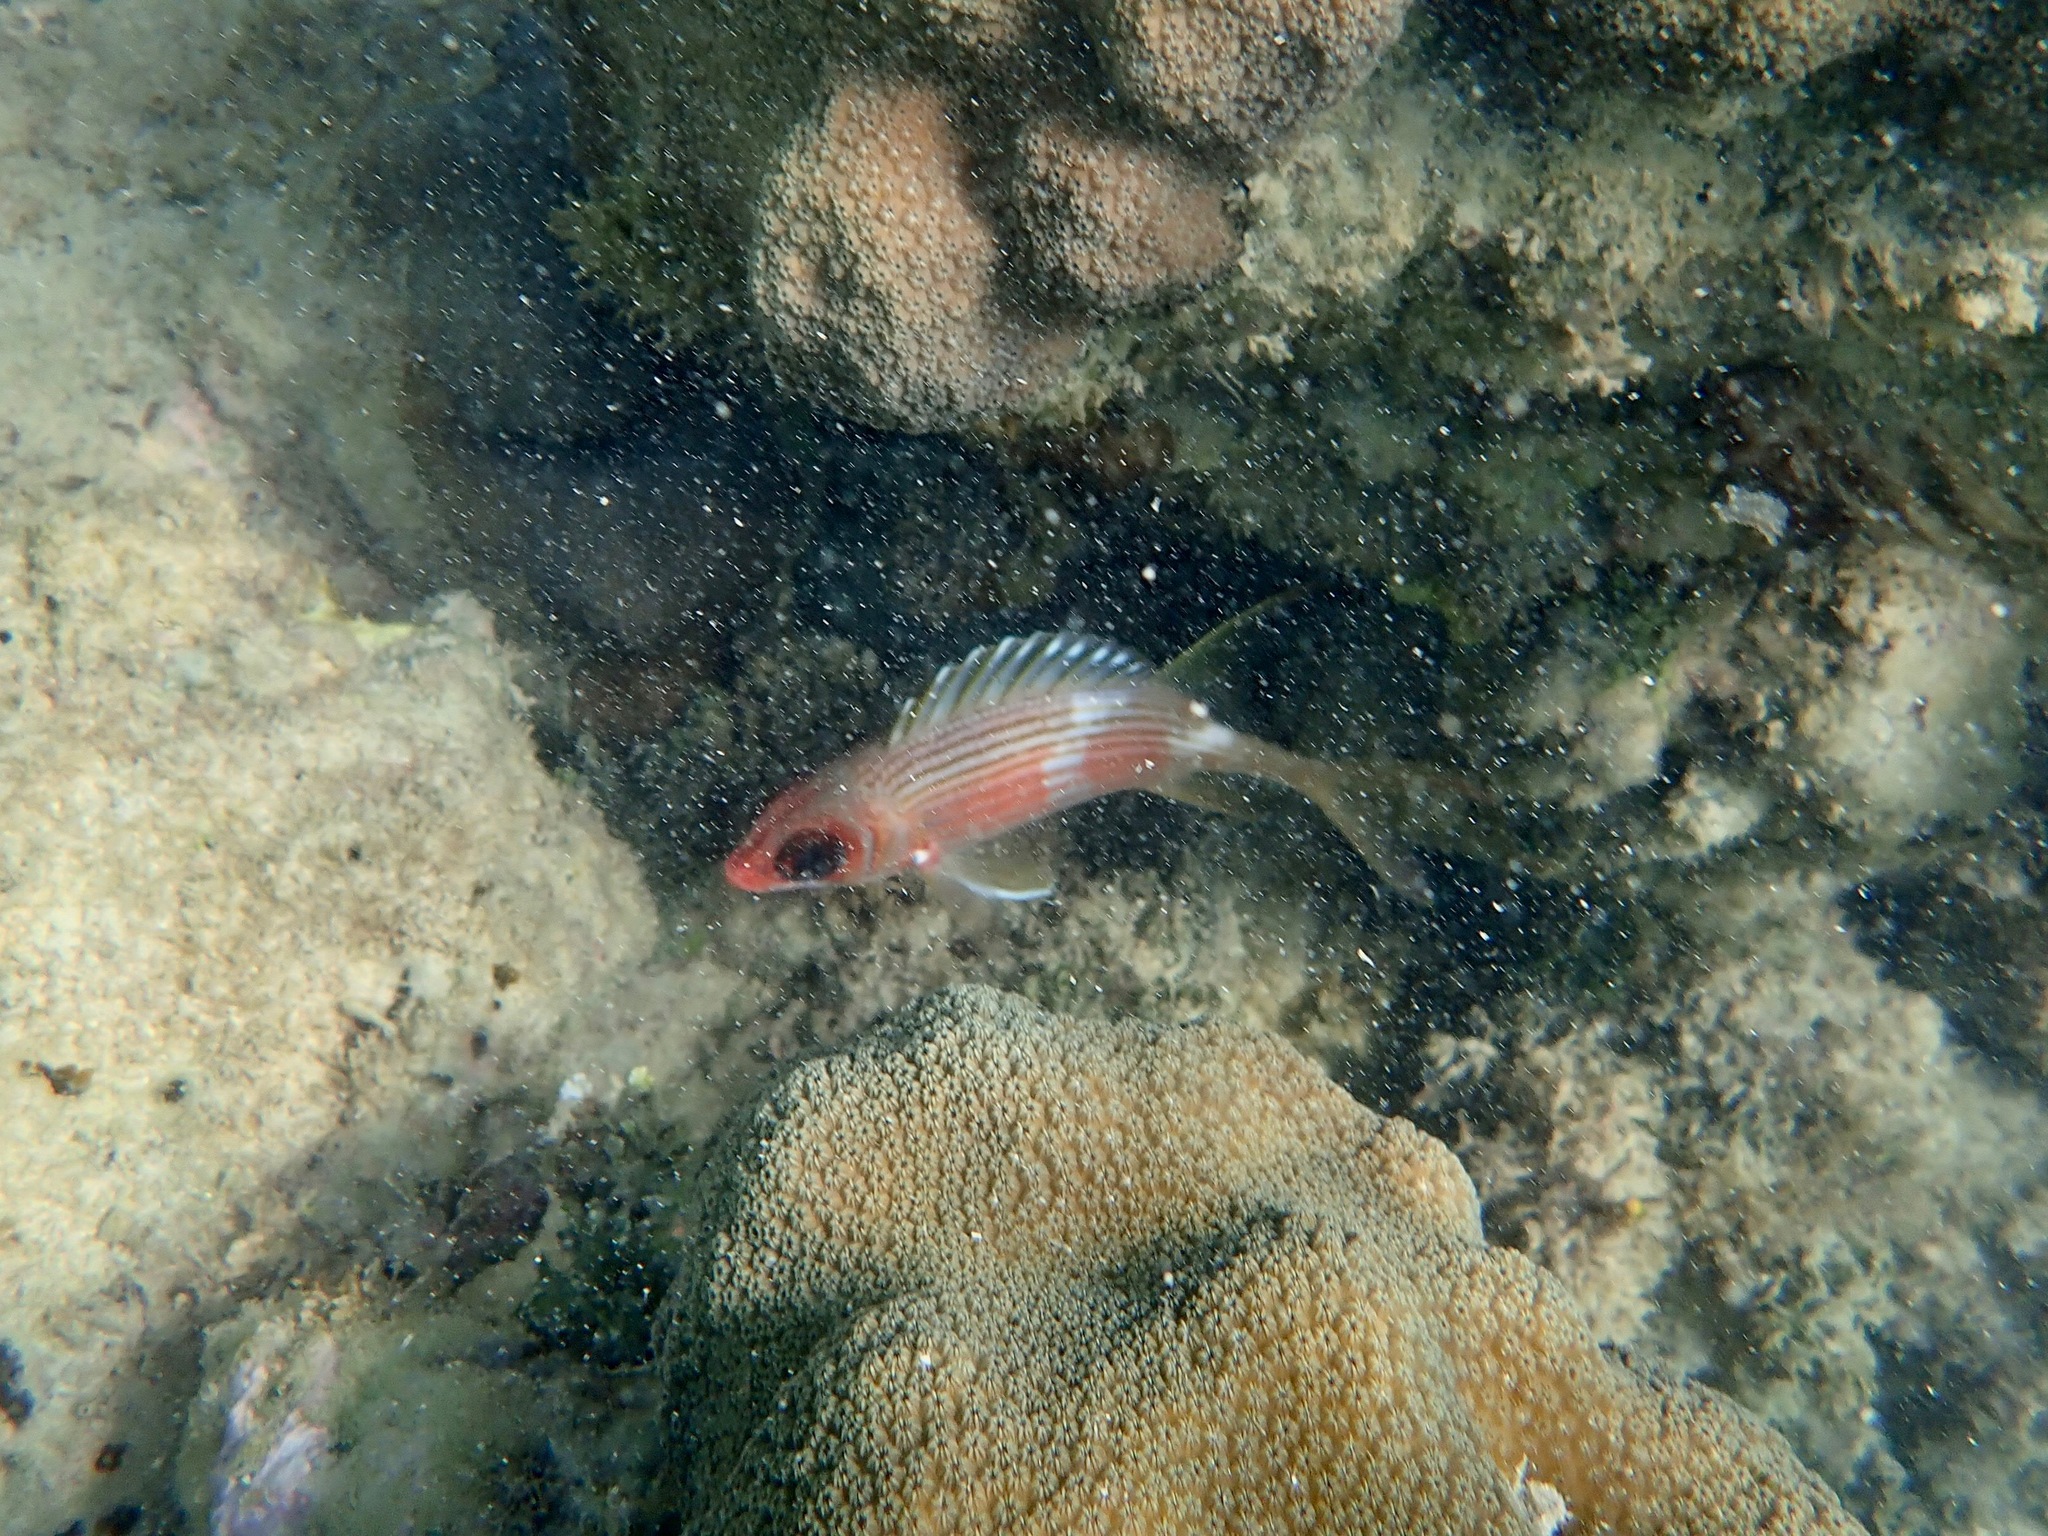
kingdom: Animalia
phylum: Chordata
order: Beryciformes
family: Holocentridae
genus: Holocentrus
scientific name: Holocentrus rufus
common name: Longspine squirrelfish
